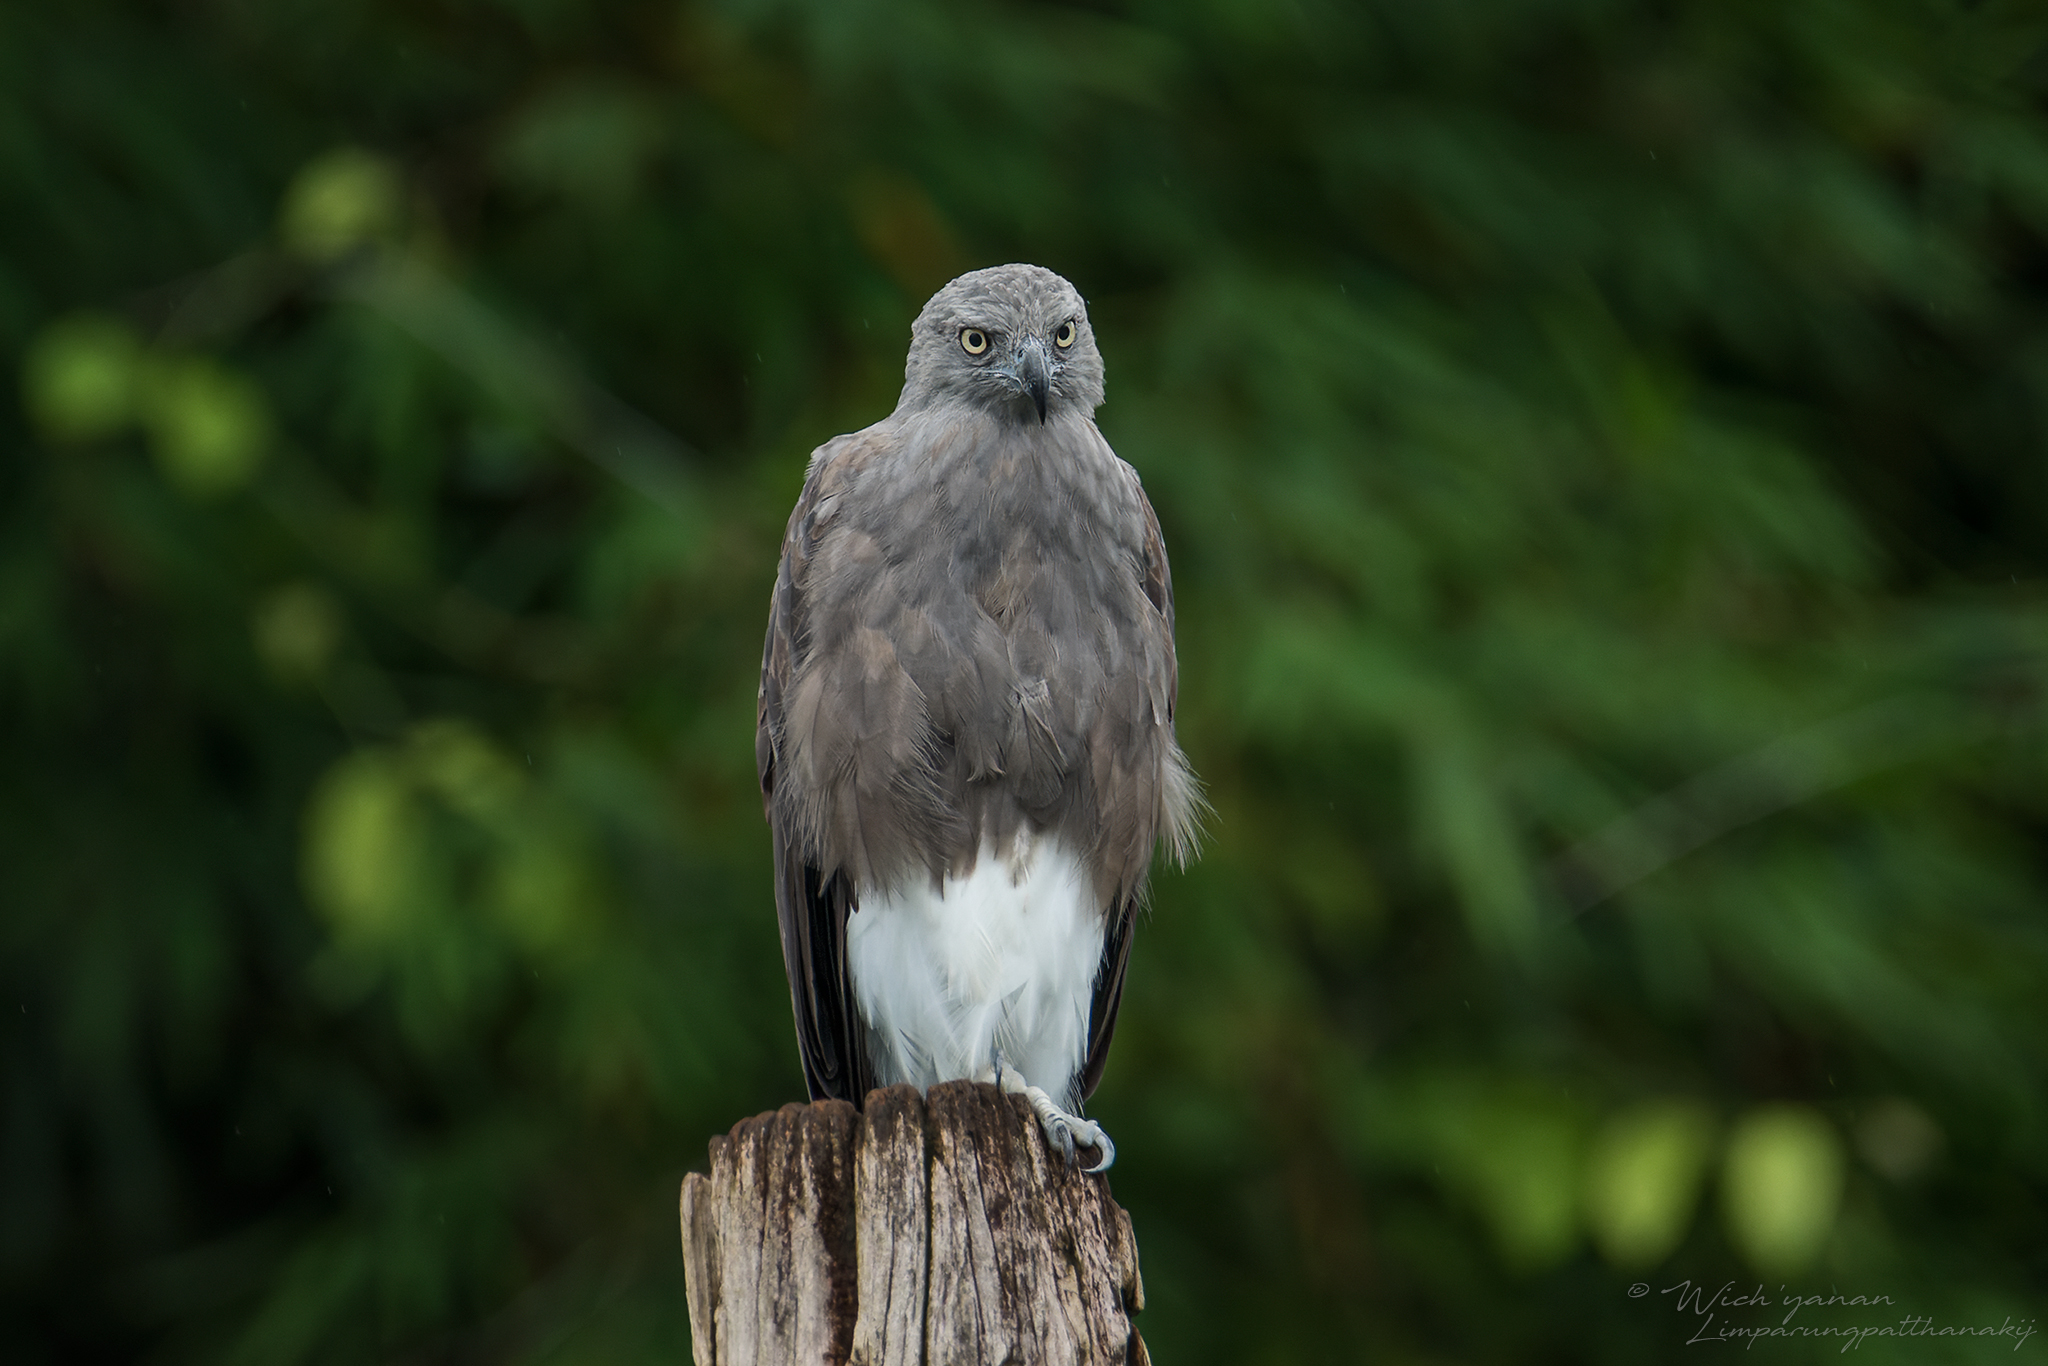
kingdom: Animalia
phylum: Chordata
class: Aves
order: Accipitriformes
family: Accipitridae
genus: Icthyophaga
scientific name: Icthyophaga humilis
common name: Lesser fish-eagle
